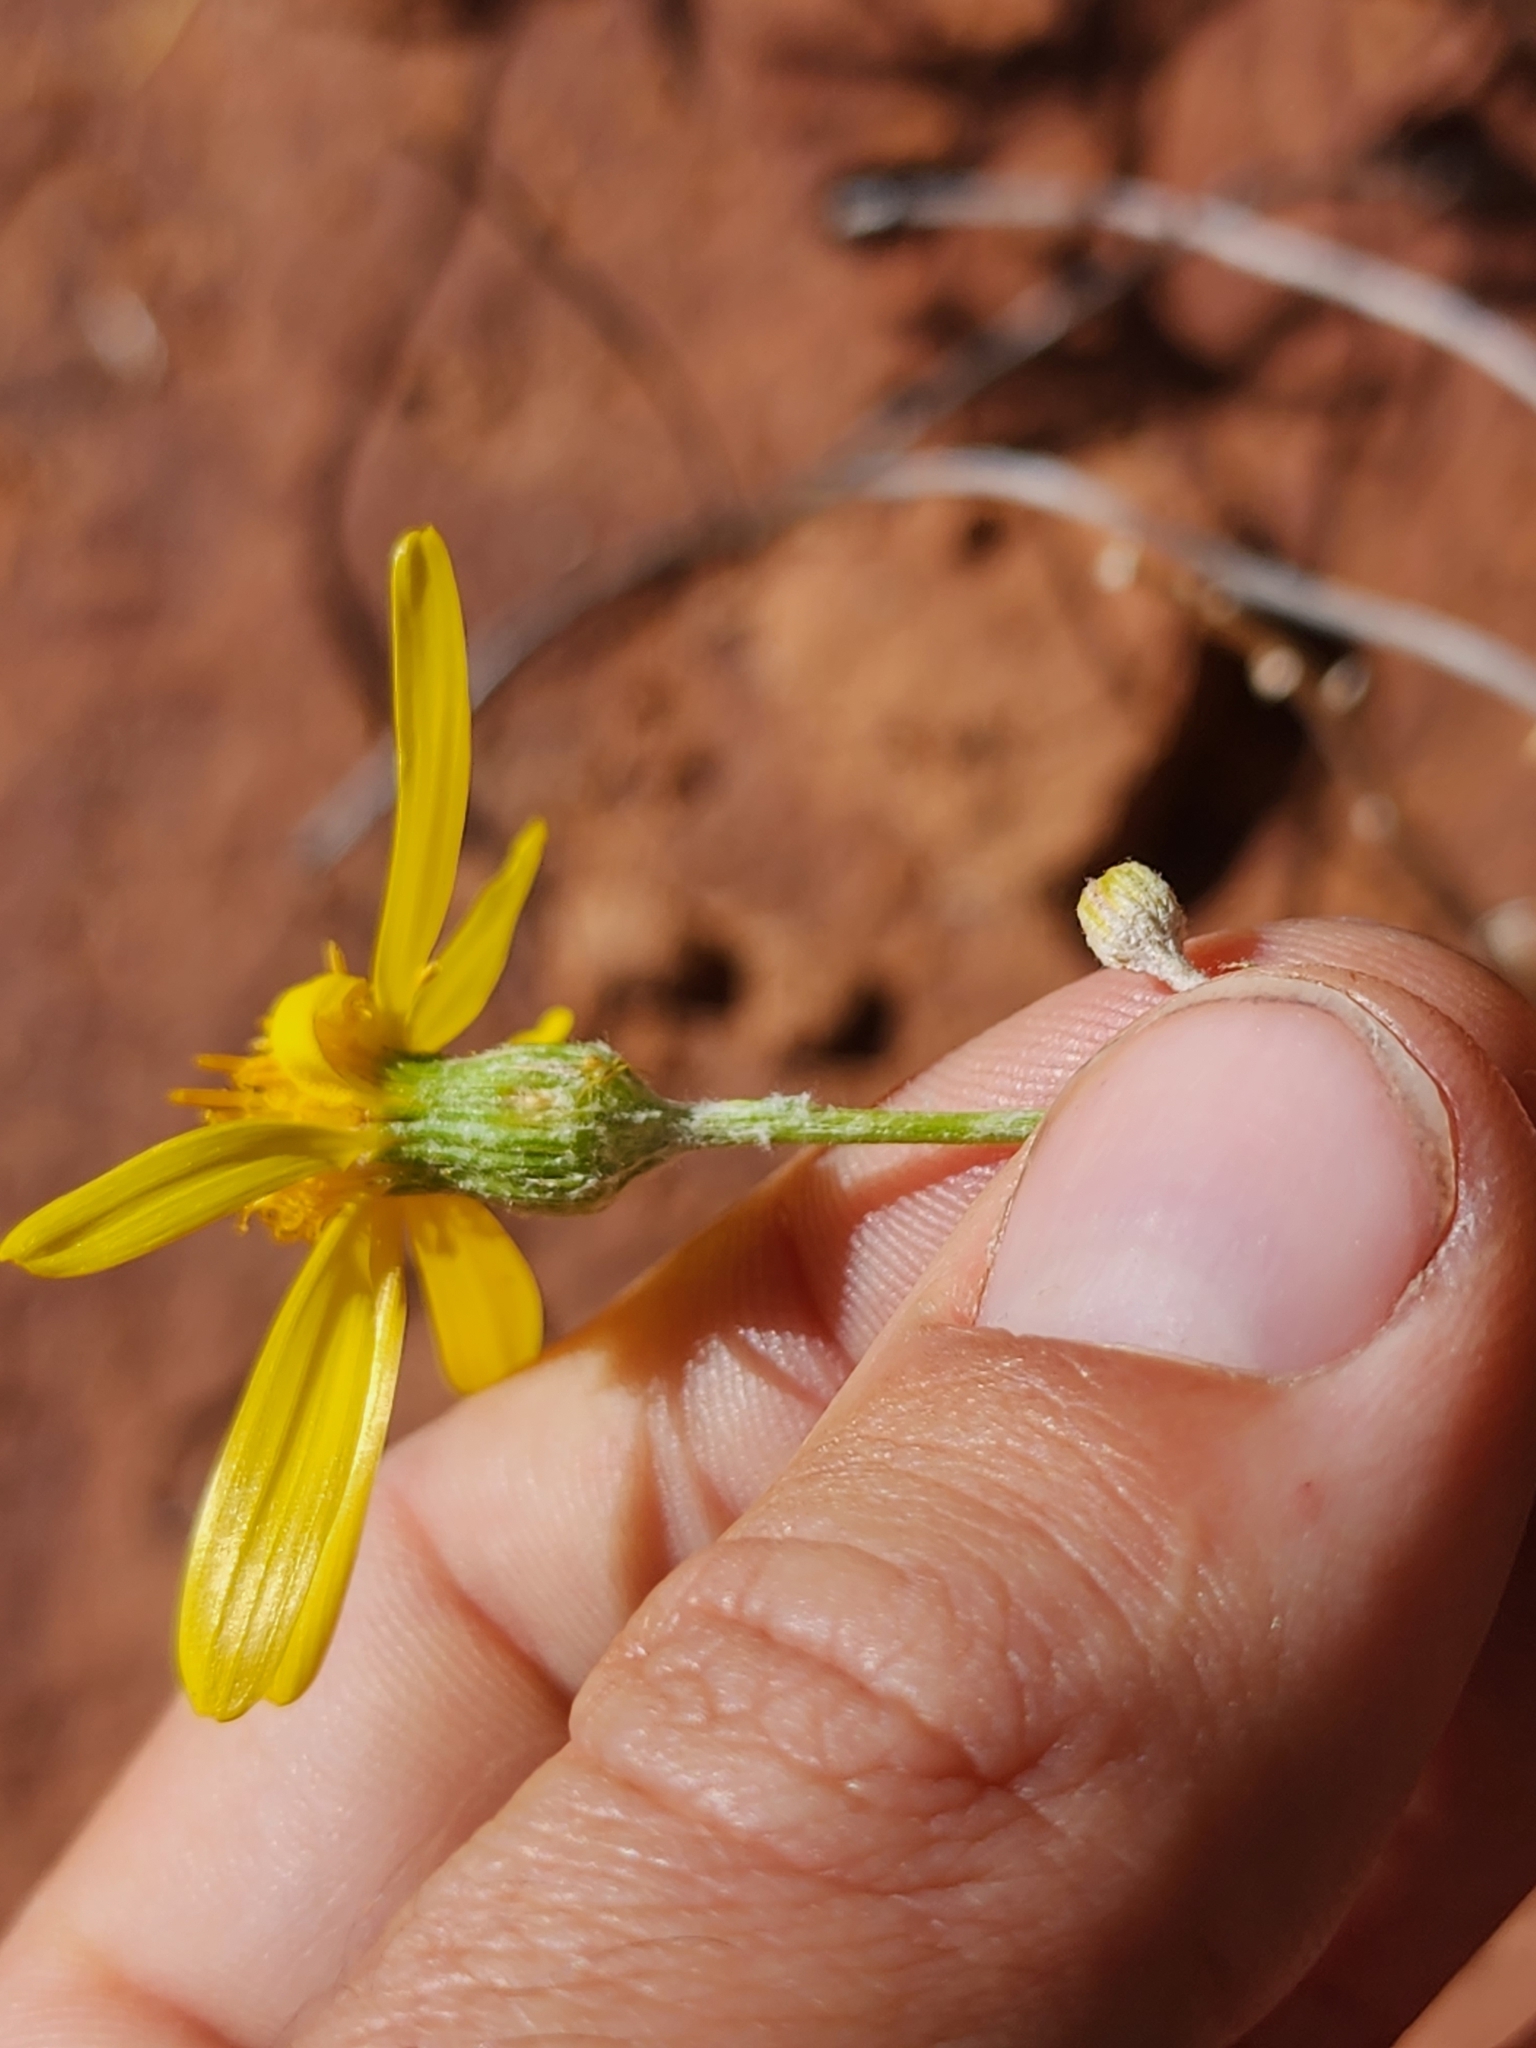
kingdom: Plantae
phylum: Tracheophyta
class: Magnoliopsida
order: Asterales
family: Asteraceae
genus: Senecio
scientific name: Senecio flaccidus
